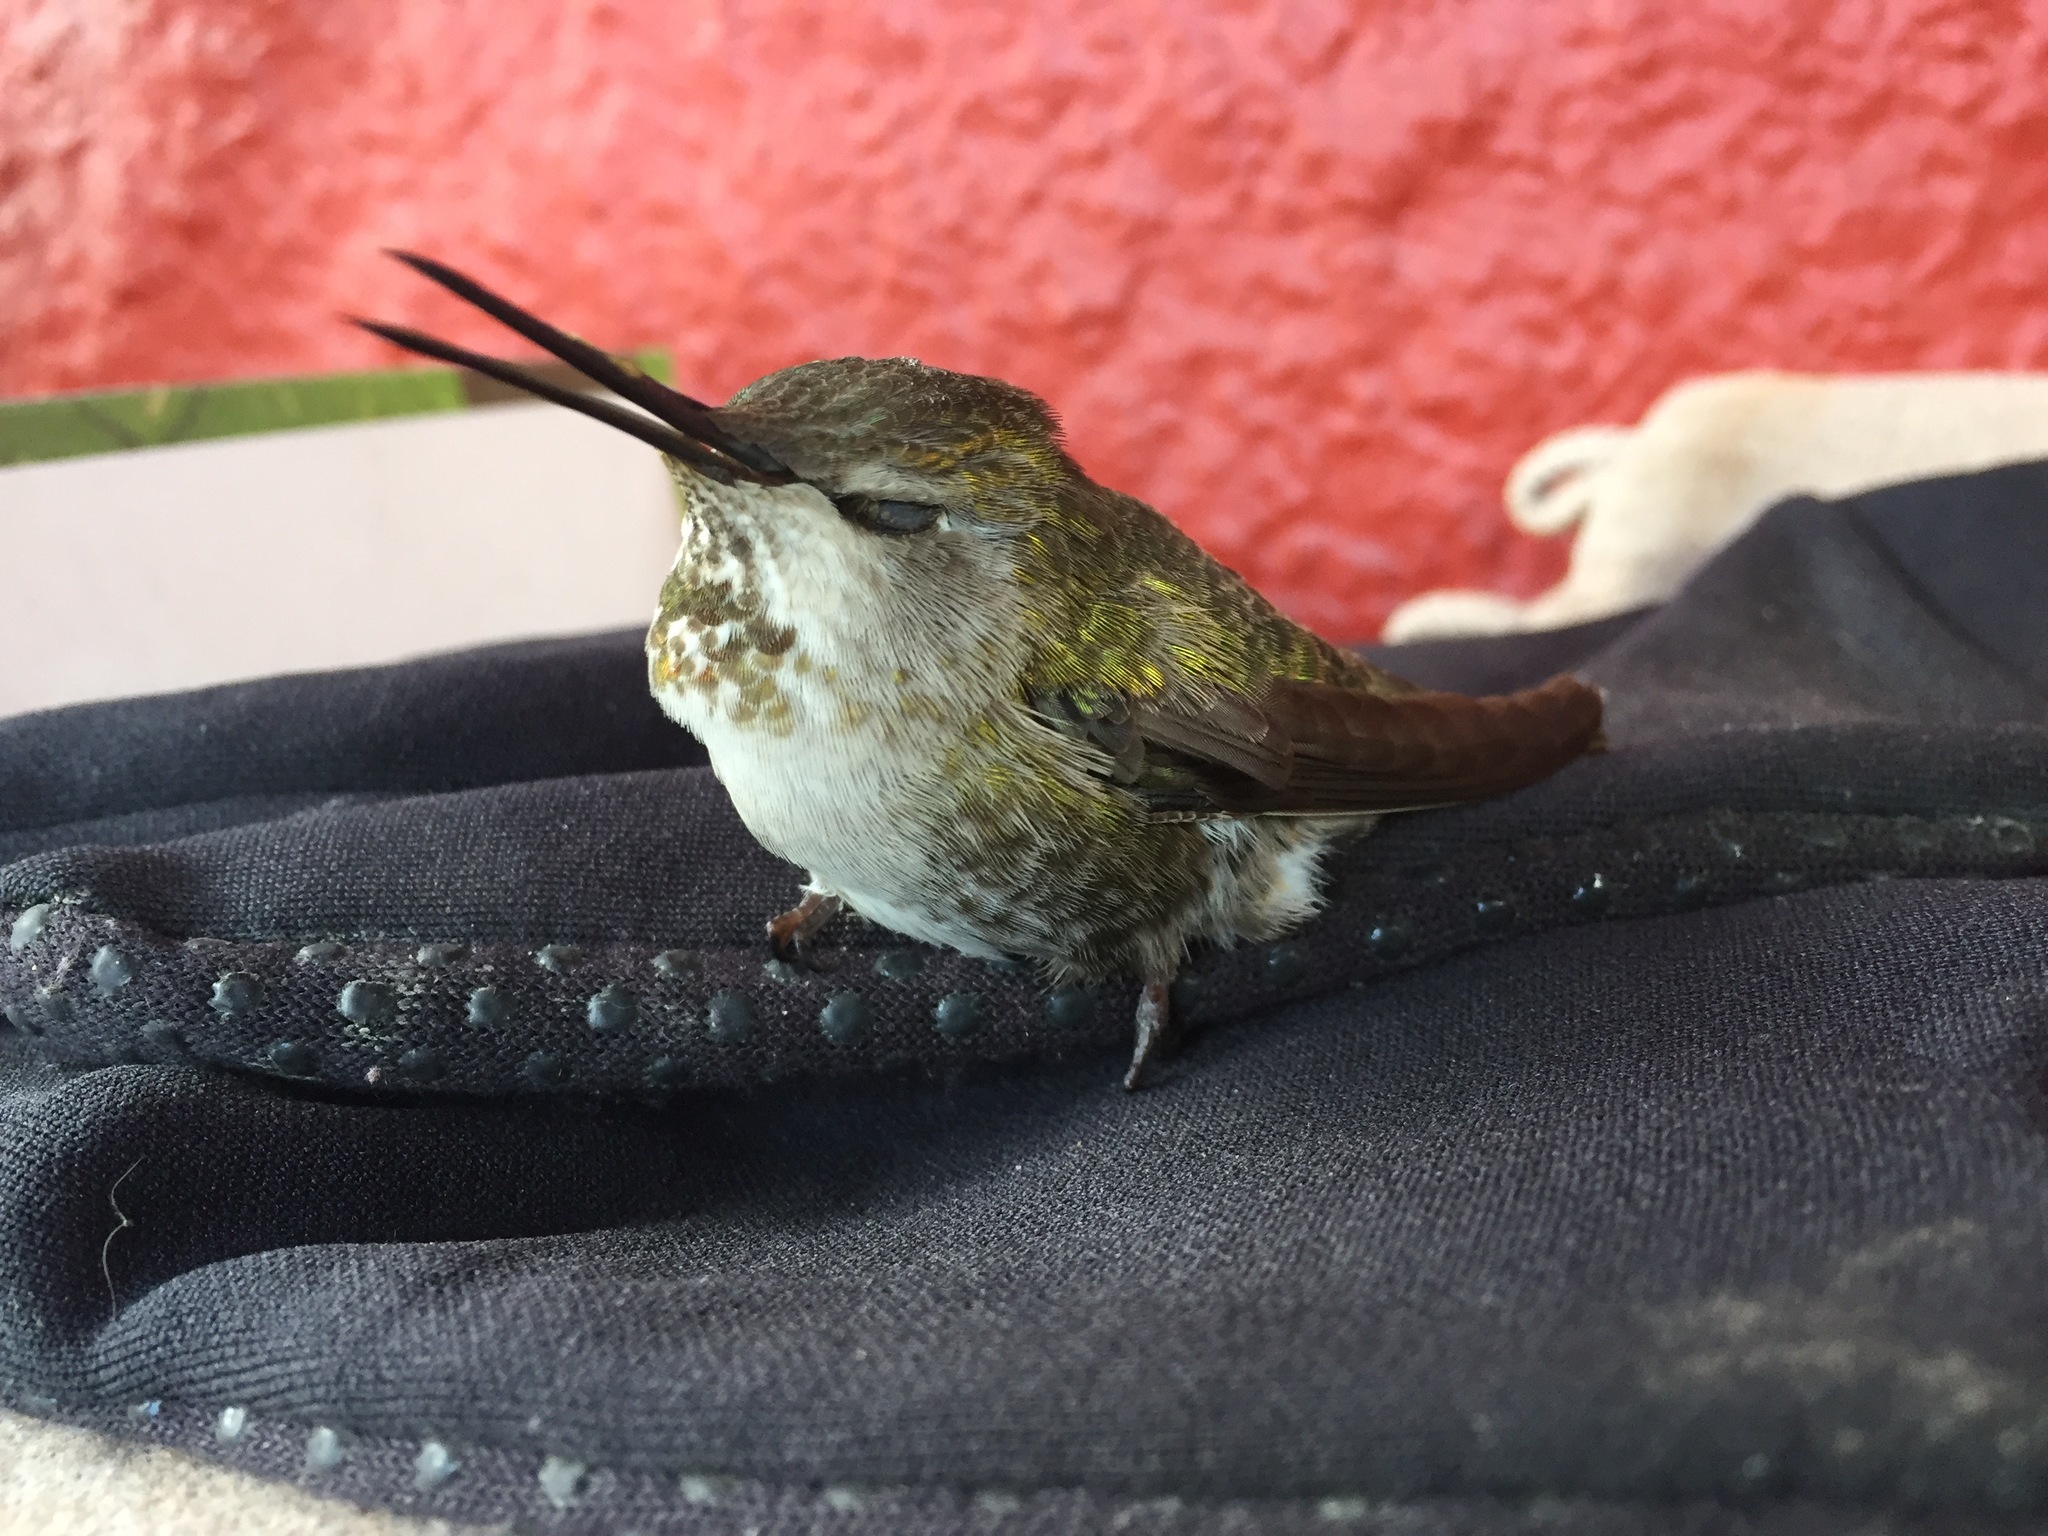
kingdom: Animalia
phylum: Chordata
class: Aves
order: Apodiformes
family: Trochilidae
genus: Calypte
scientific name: Calypte anna
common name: Anna's hummingbird
